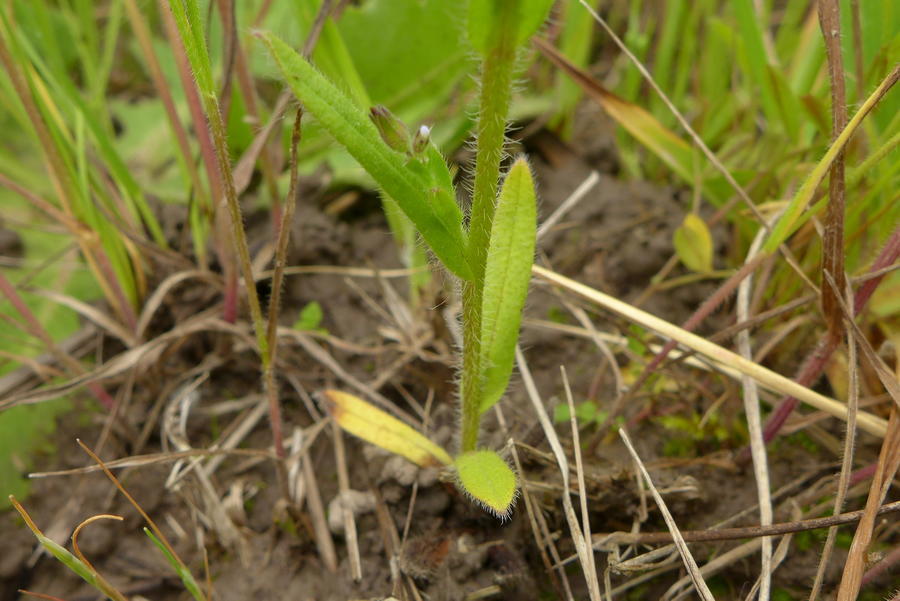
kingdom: Plantae
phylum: Tracheophyta
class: Magnoliopsida
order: Boraginales
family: Boraginaceae
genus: Myosotis
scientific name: Myosotis discolor
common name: Changing forget-me-not
